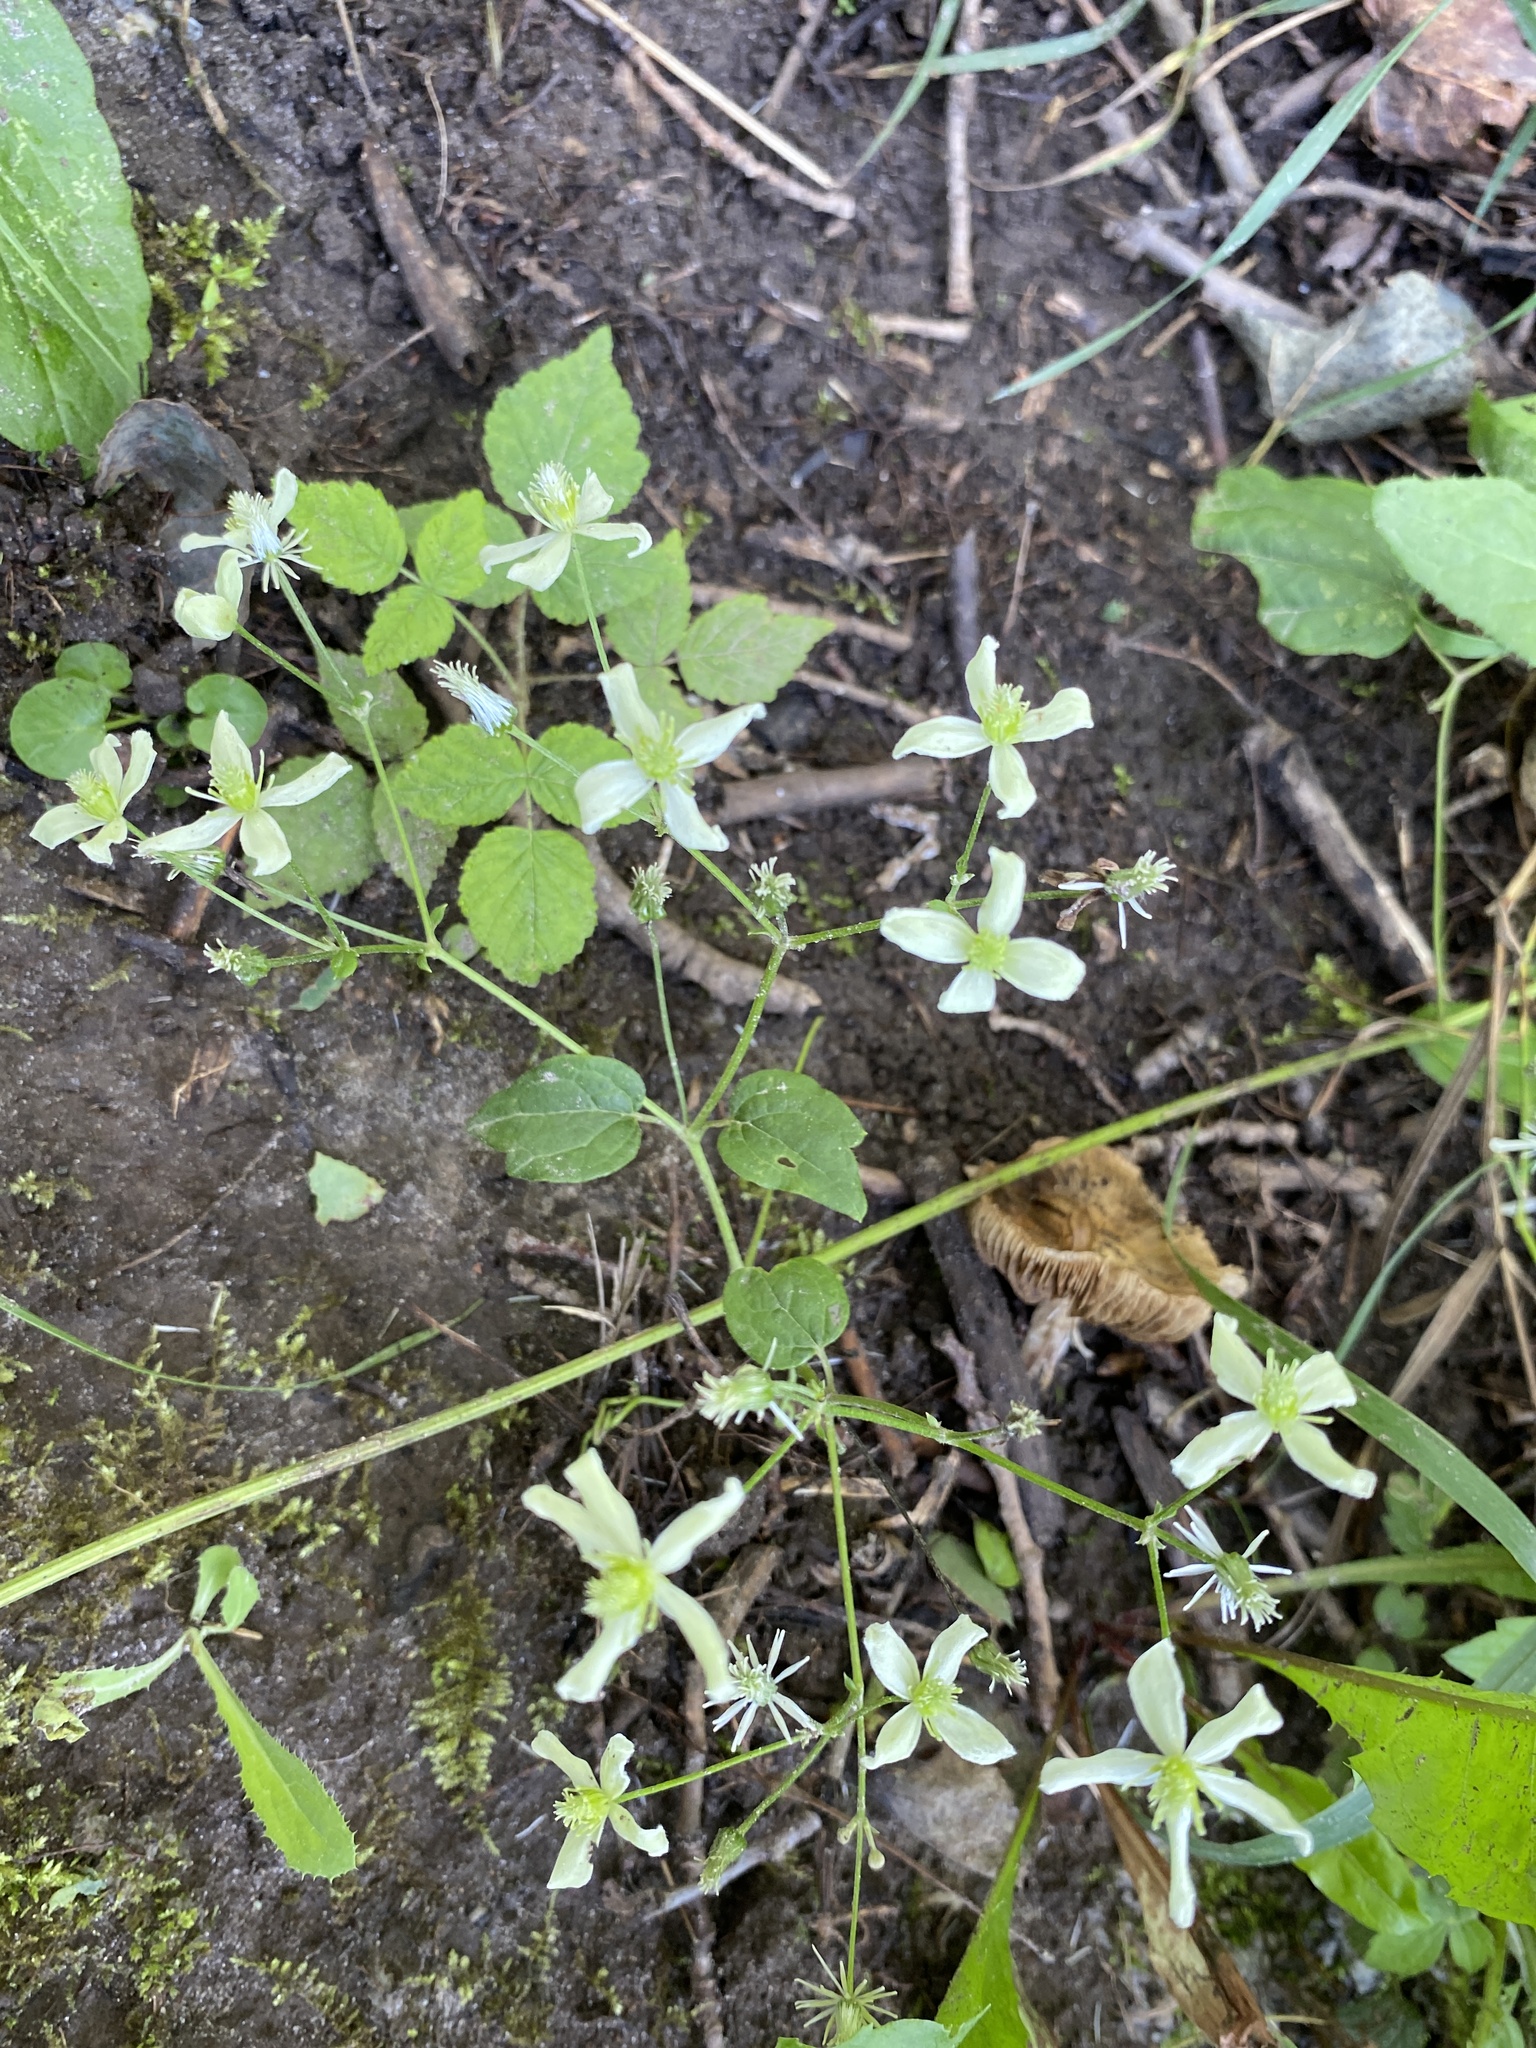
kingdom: Plantae
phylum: Tracheophyta
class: Magnoliopsida
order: Ranunculales
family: Ranunculaceae
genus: Clematis
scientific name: Clematis virginiana
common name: Virgin's-bower
